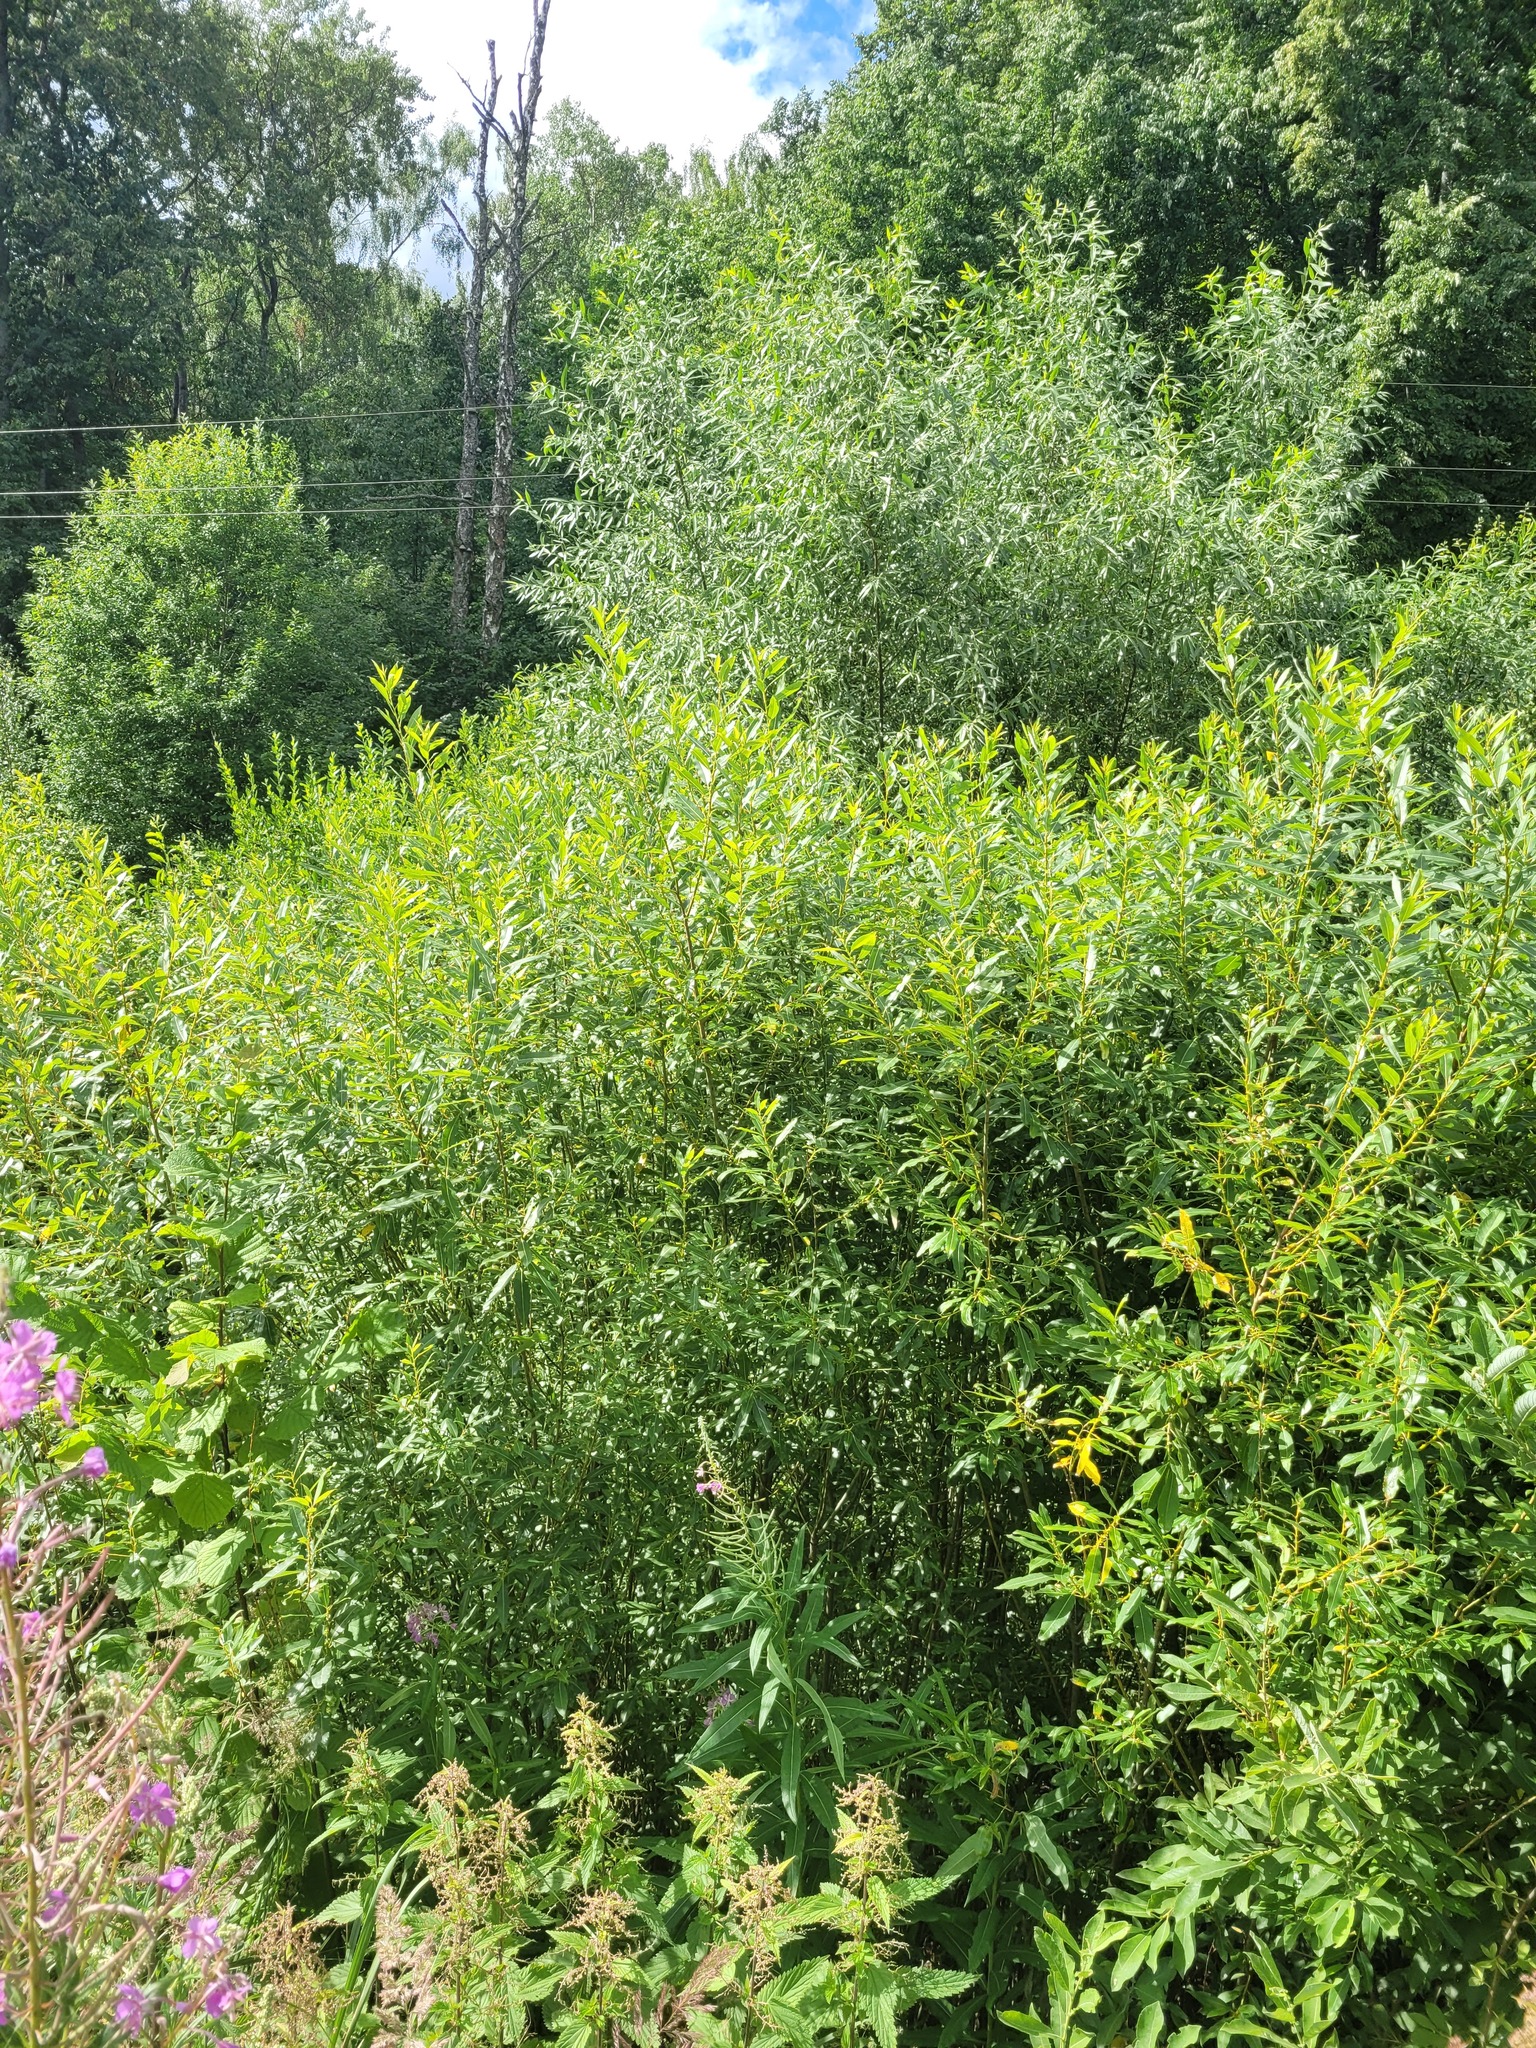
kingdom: Plantae
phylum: Tracheophyta
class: Magnoliopsida
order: Malpighiales
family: Salicaceae
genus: Salix
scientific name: Salix triandra
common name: Almond willow
